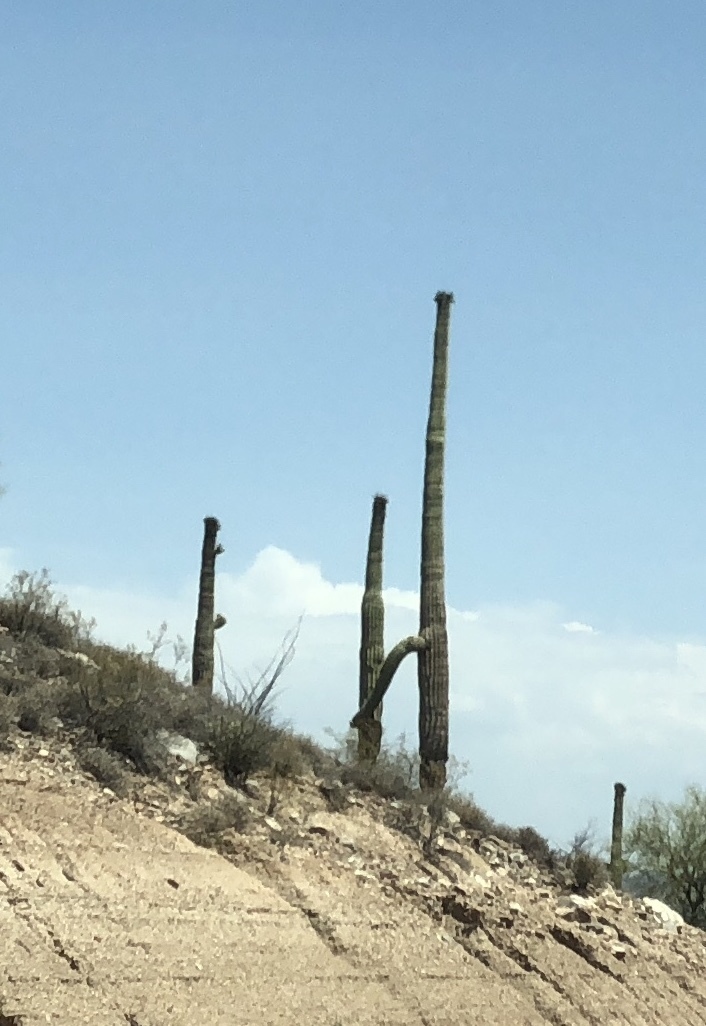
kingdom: Plantae
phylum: Tracheophyta
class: Magnoliopsida
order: Caryophyllales
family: Cactaceae
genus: Carnegiea
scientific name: Carnegiea gigantea
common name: Saguaro
